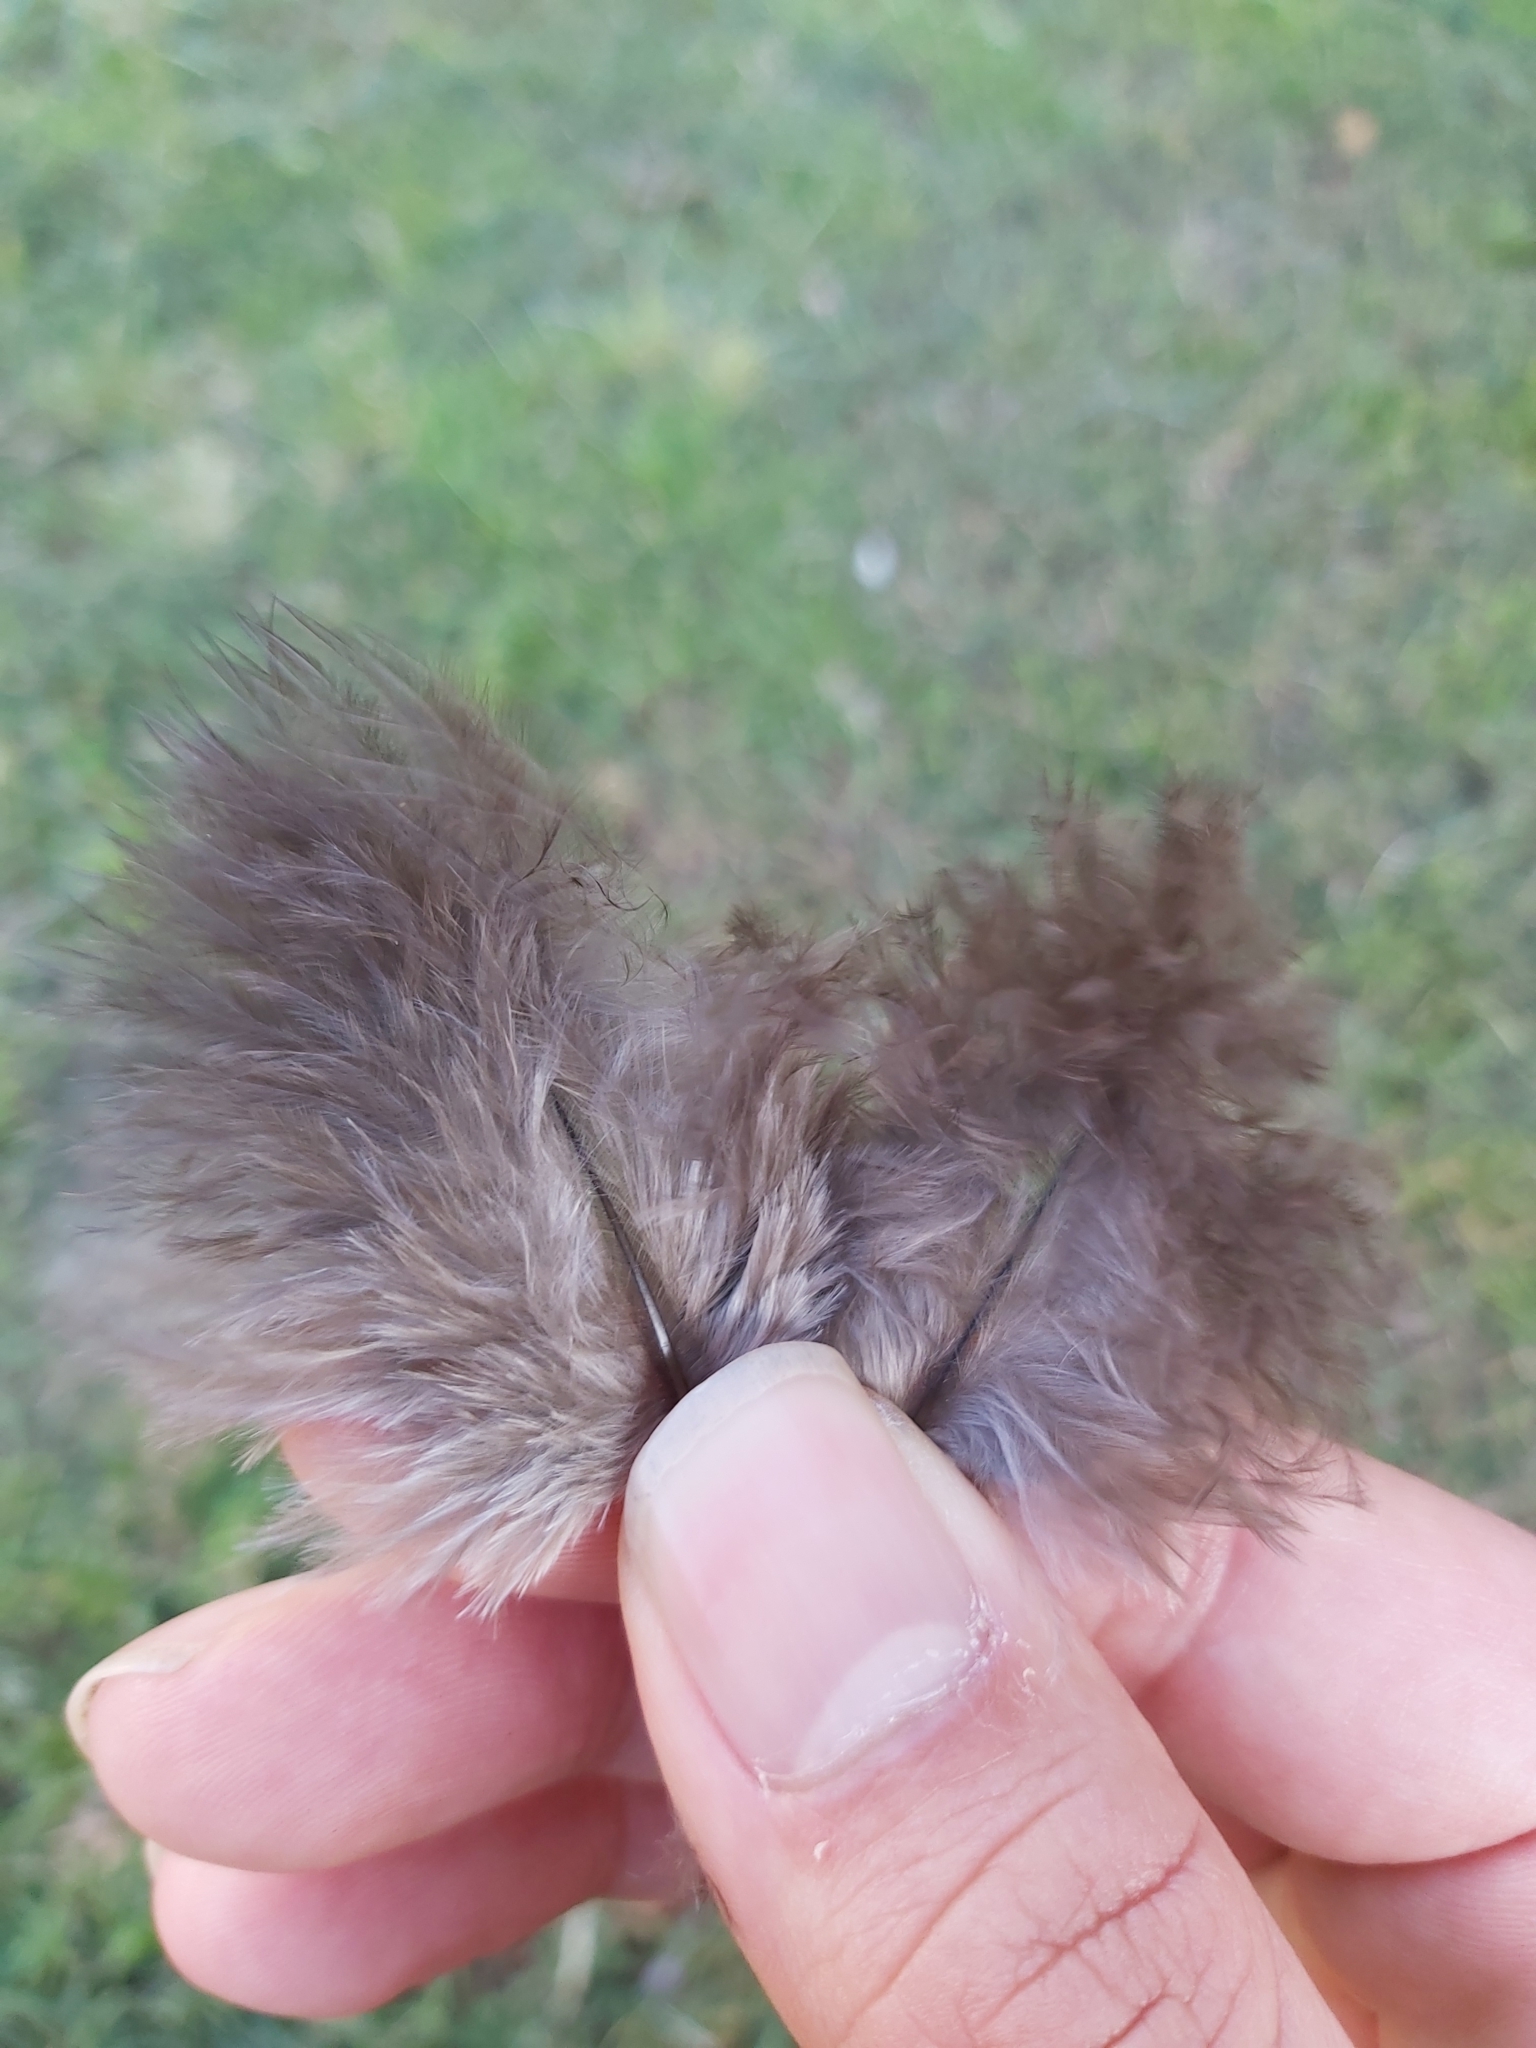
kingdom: Animalia
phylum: Chordata
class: Aves
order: Galliformes
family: Megapodiidae
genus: Alectura
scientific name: Alectura lathami
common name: Australian brushturkey
